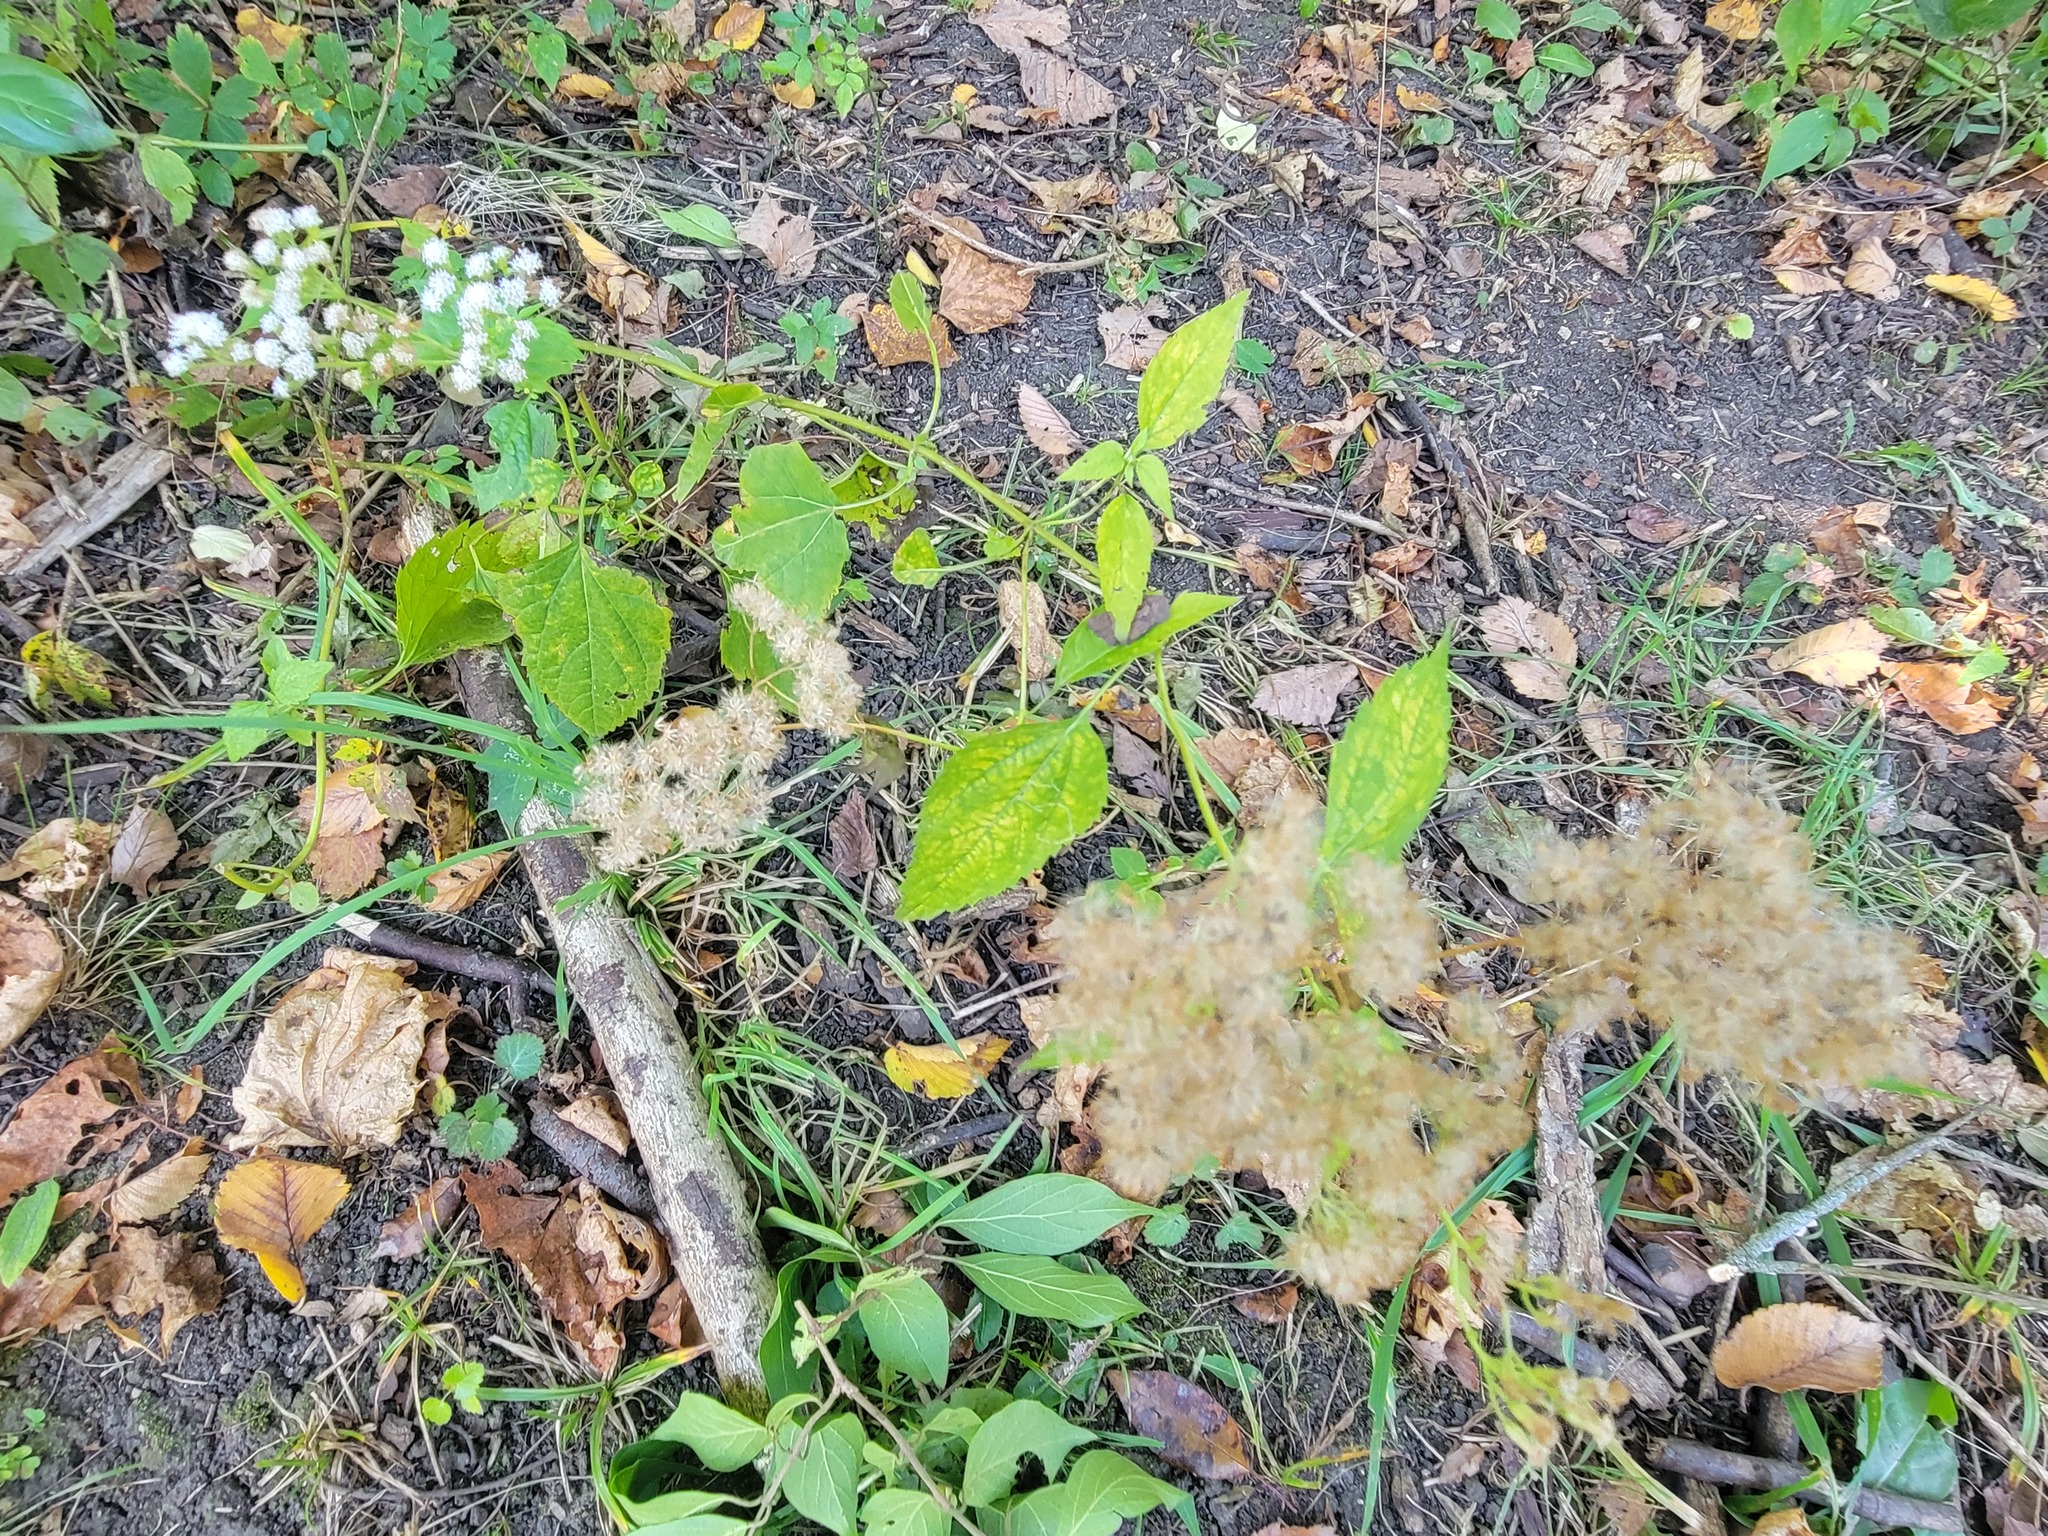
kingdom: Plantae
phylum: Tracheophyta
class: Magnoliopsida
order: Asterales
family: Asteraceae
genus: Ageratina
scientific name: Ageratina altissima
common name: White snakeroot
